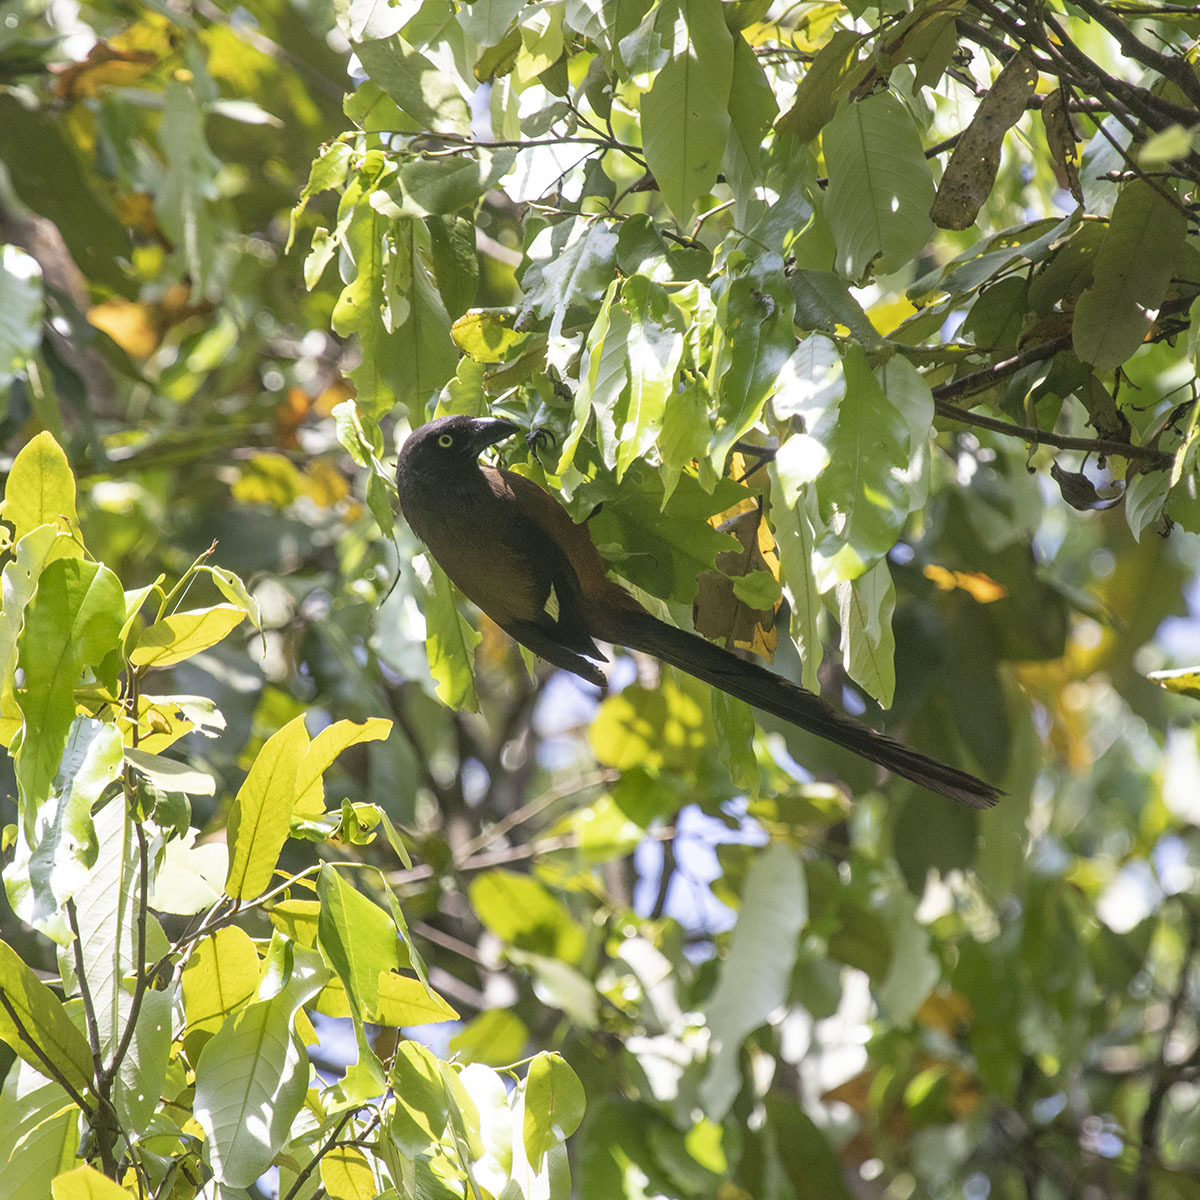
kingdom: Animalia
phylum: Chordata
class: Aves
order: Passeriformes
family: Corvidae
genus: Dendrocitta
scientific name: Dendrocitta bayleii
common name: Andaman treepie
